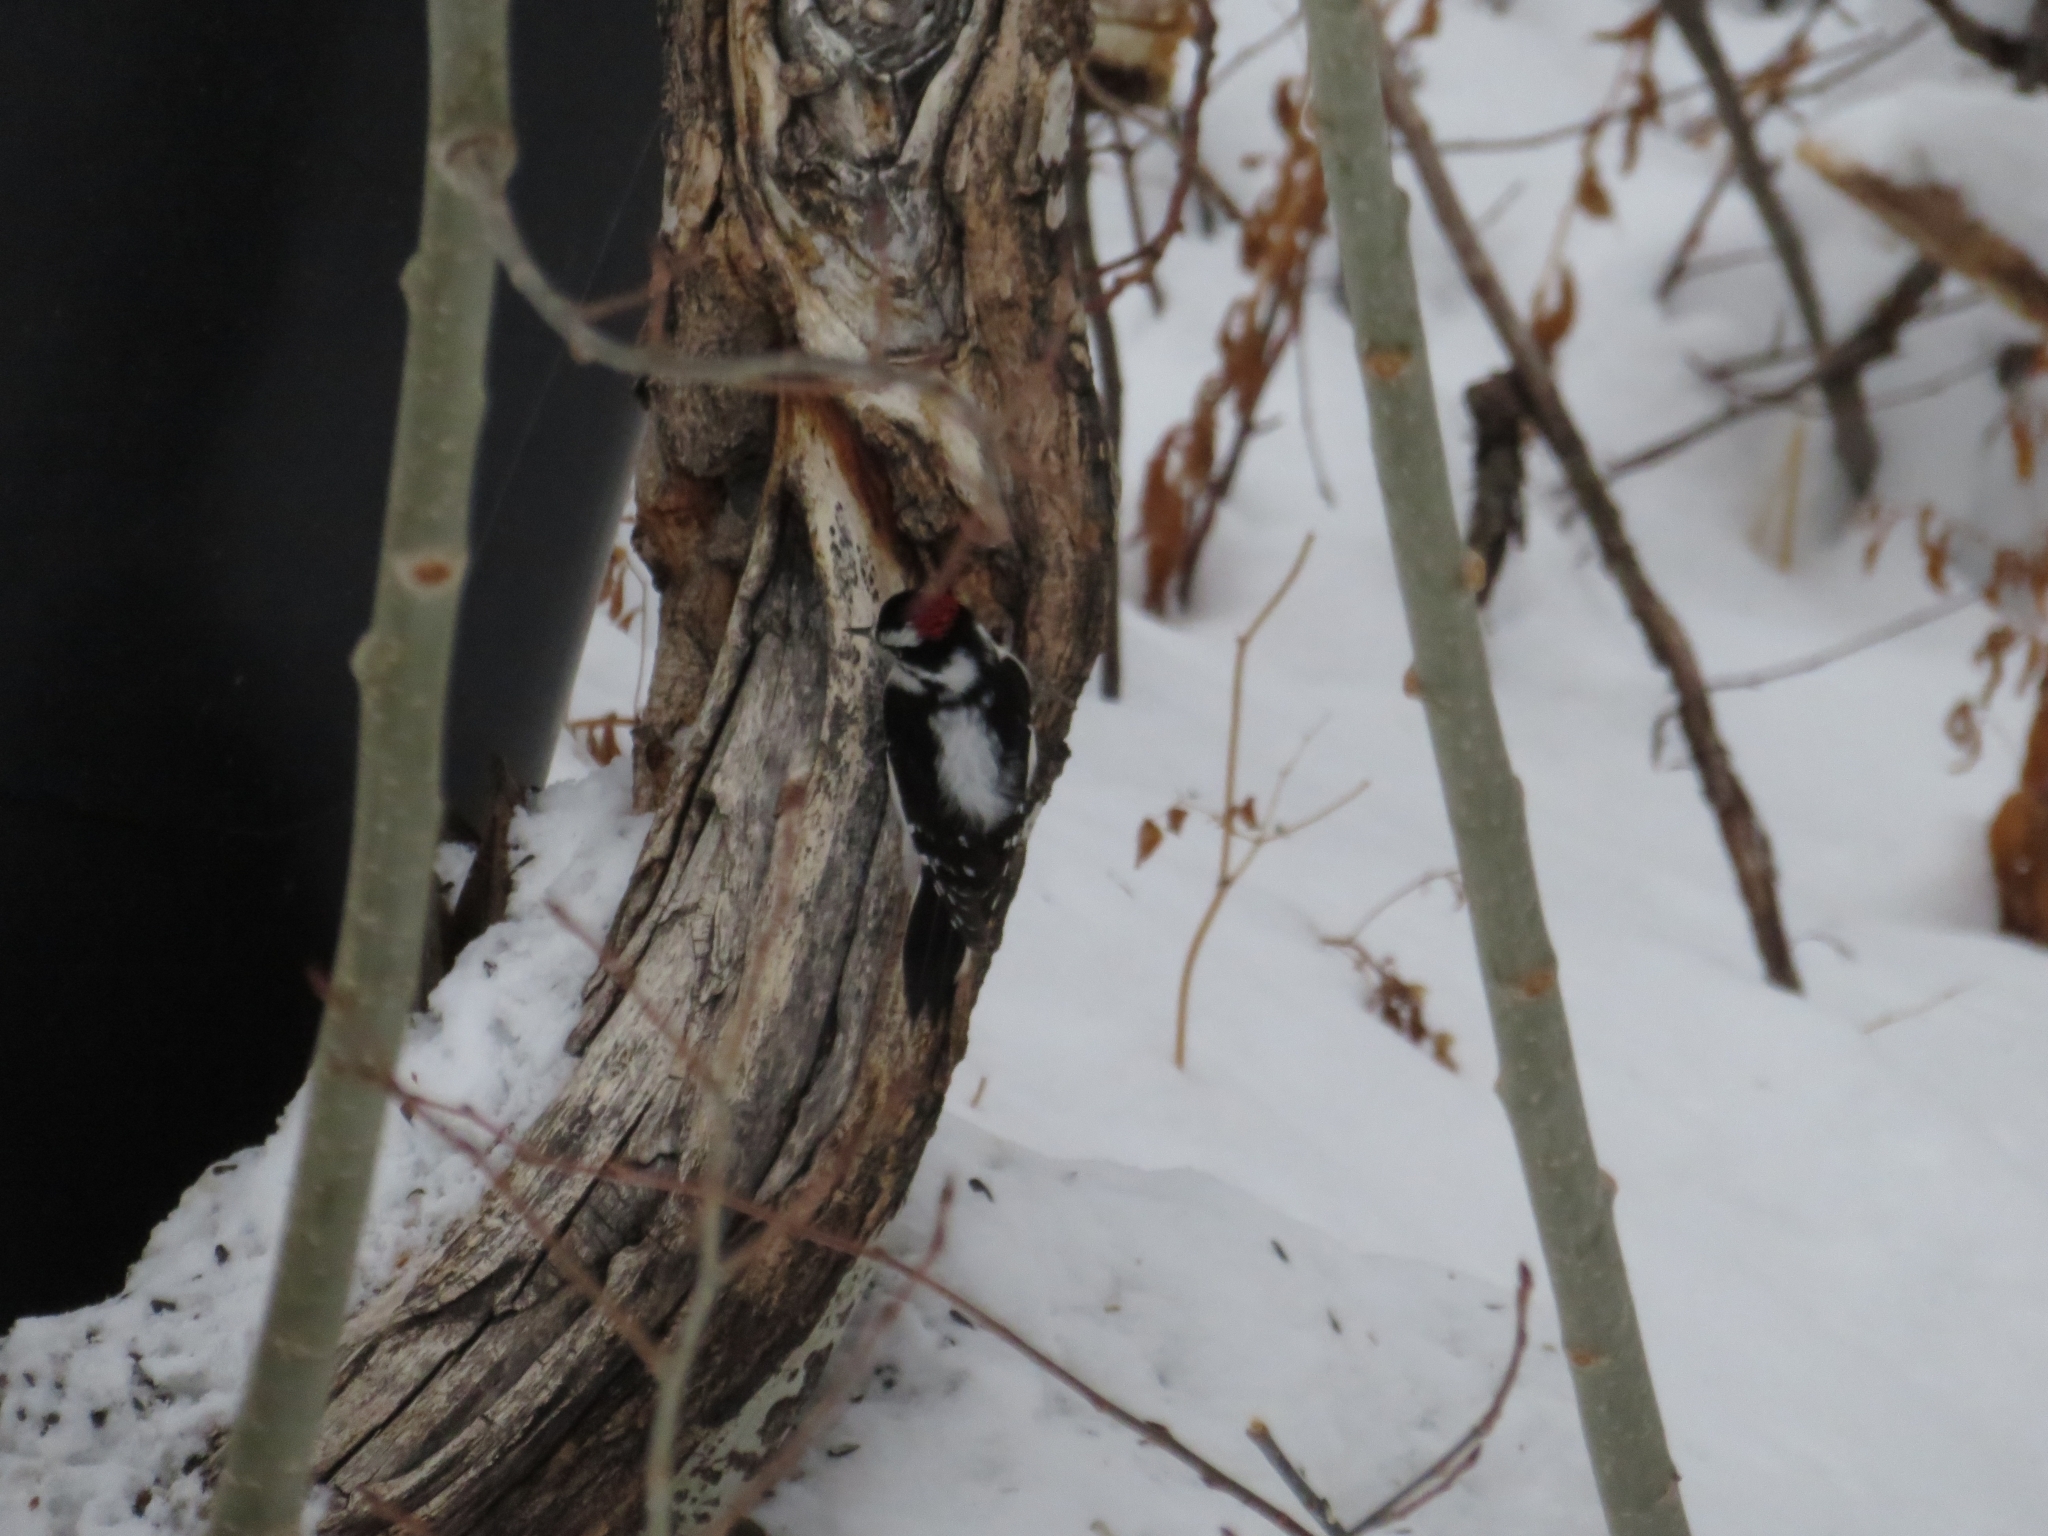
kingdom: Animalia
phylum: Chordata
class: Aves
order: Piciformes
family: Picidae
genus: Dryobates
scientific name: Dryobates pubescens
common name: Downy woodpecker
